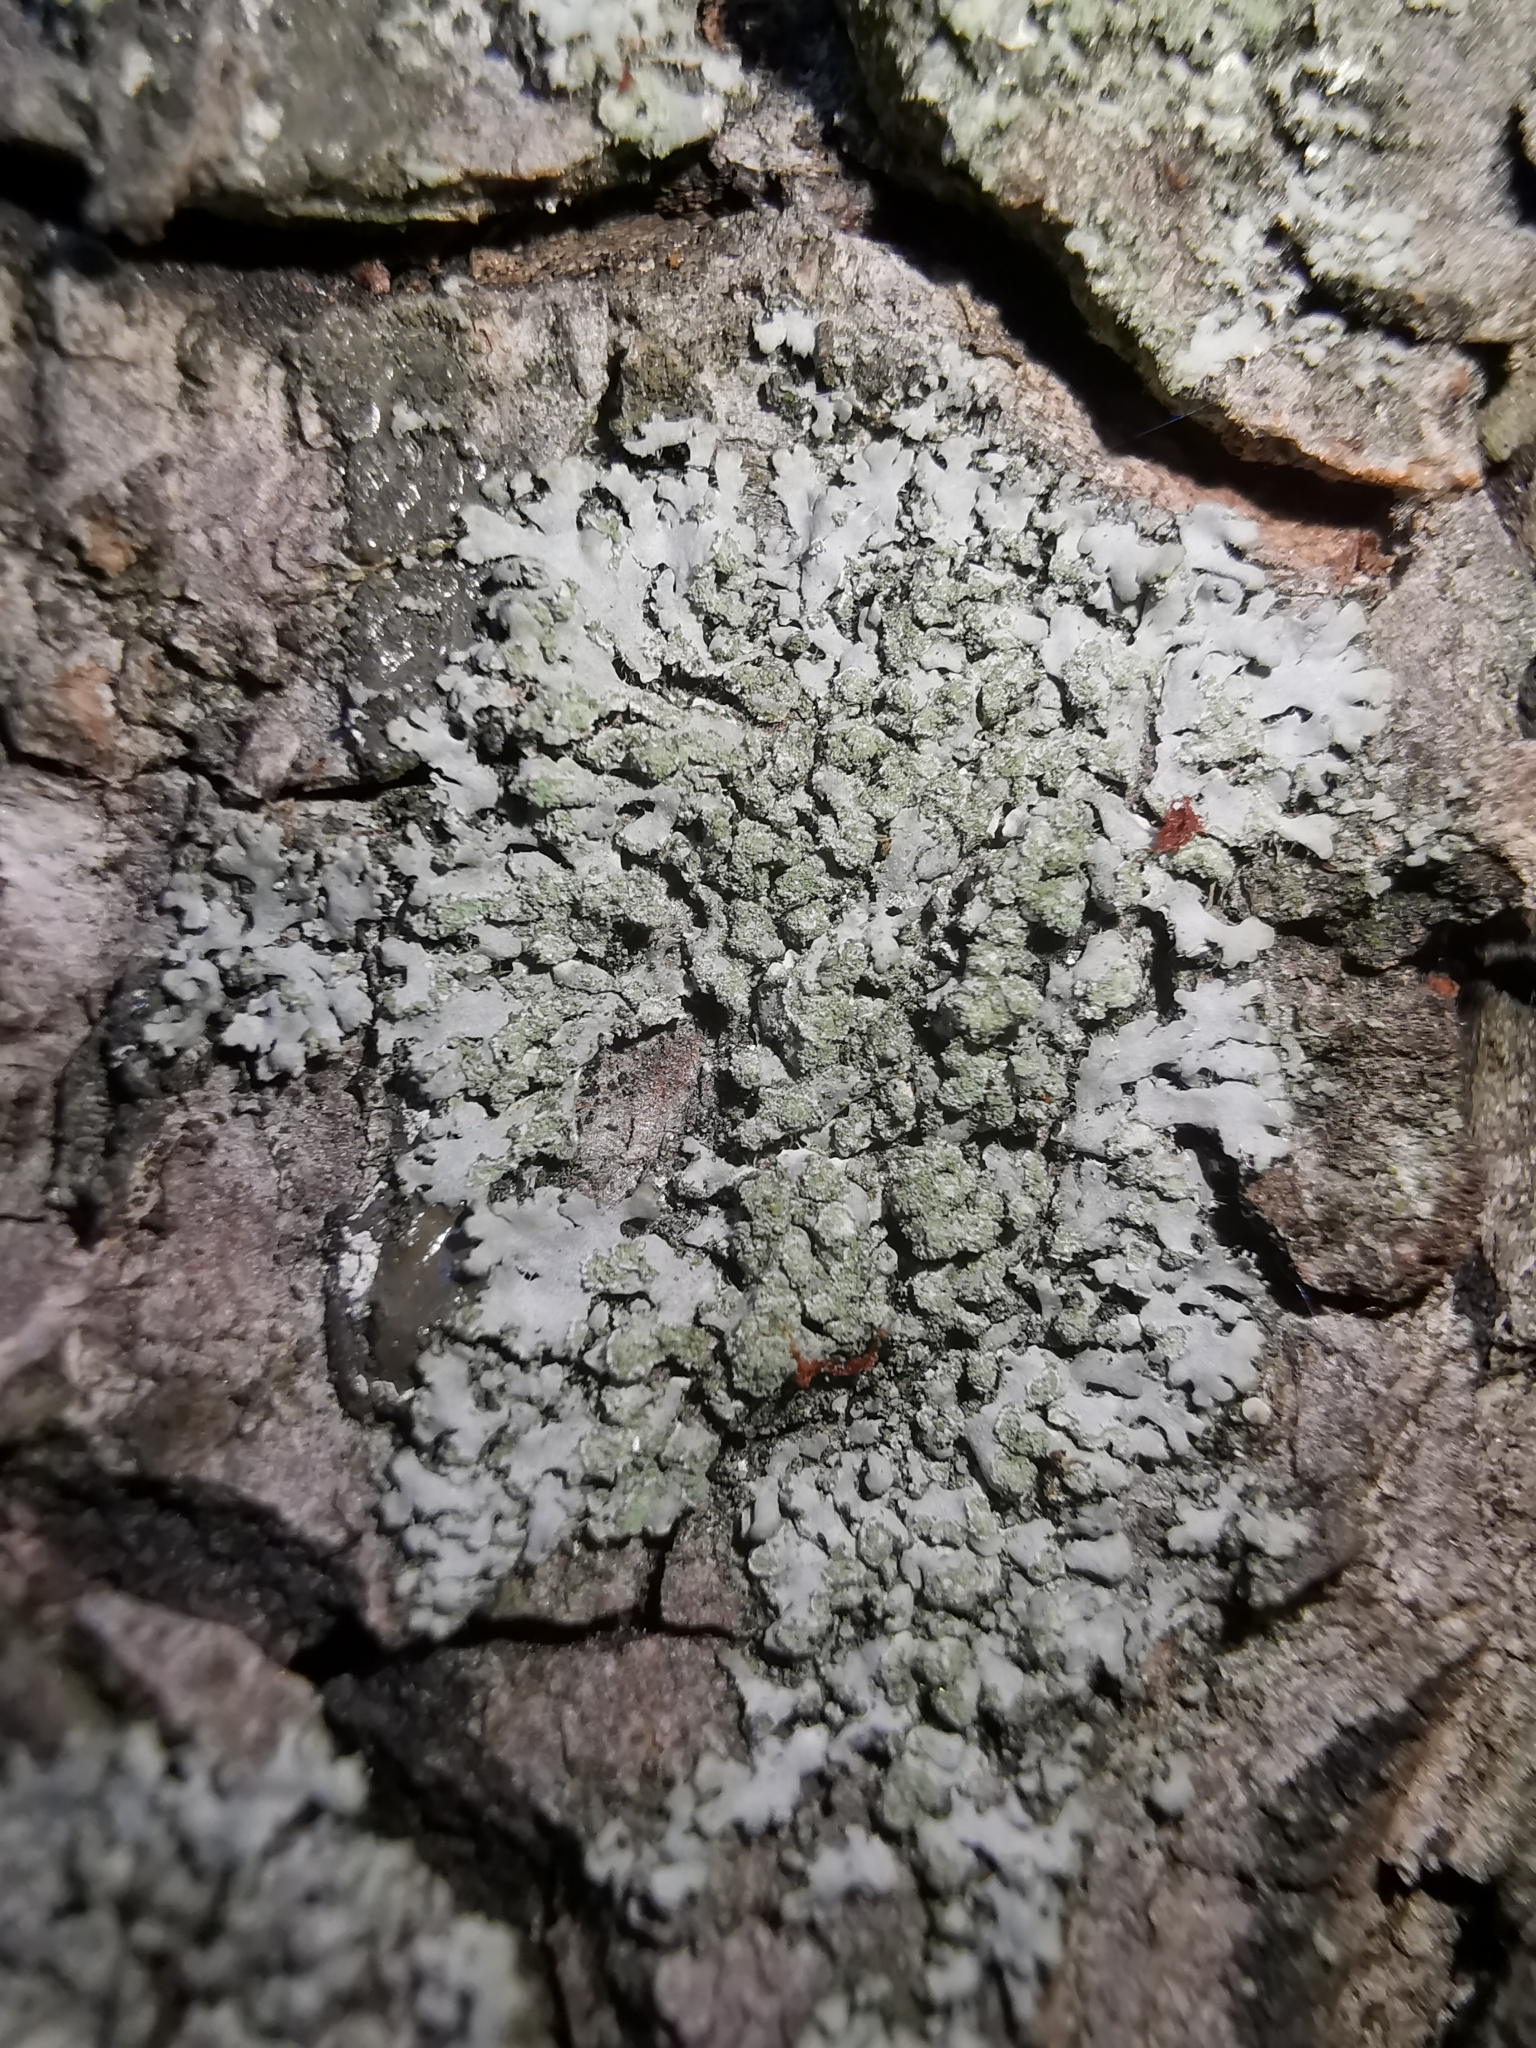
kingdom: Fungi
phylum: Ascomycota
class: Lecanoromycetes
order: Caliciales
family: Physciaceae
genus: Phaeophyscia
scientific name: Phaeophyscia orbicularis
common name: Mealy shadow lichen
